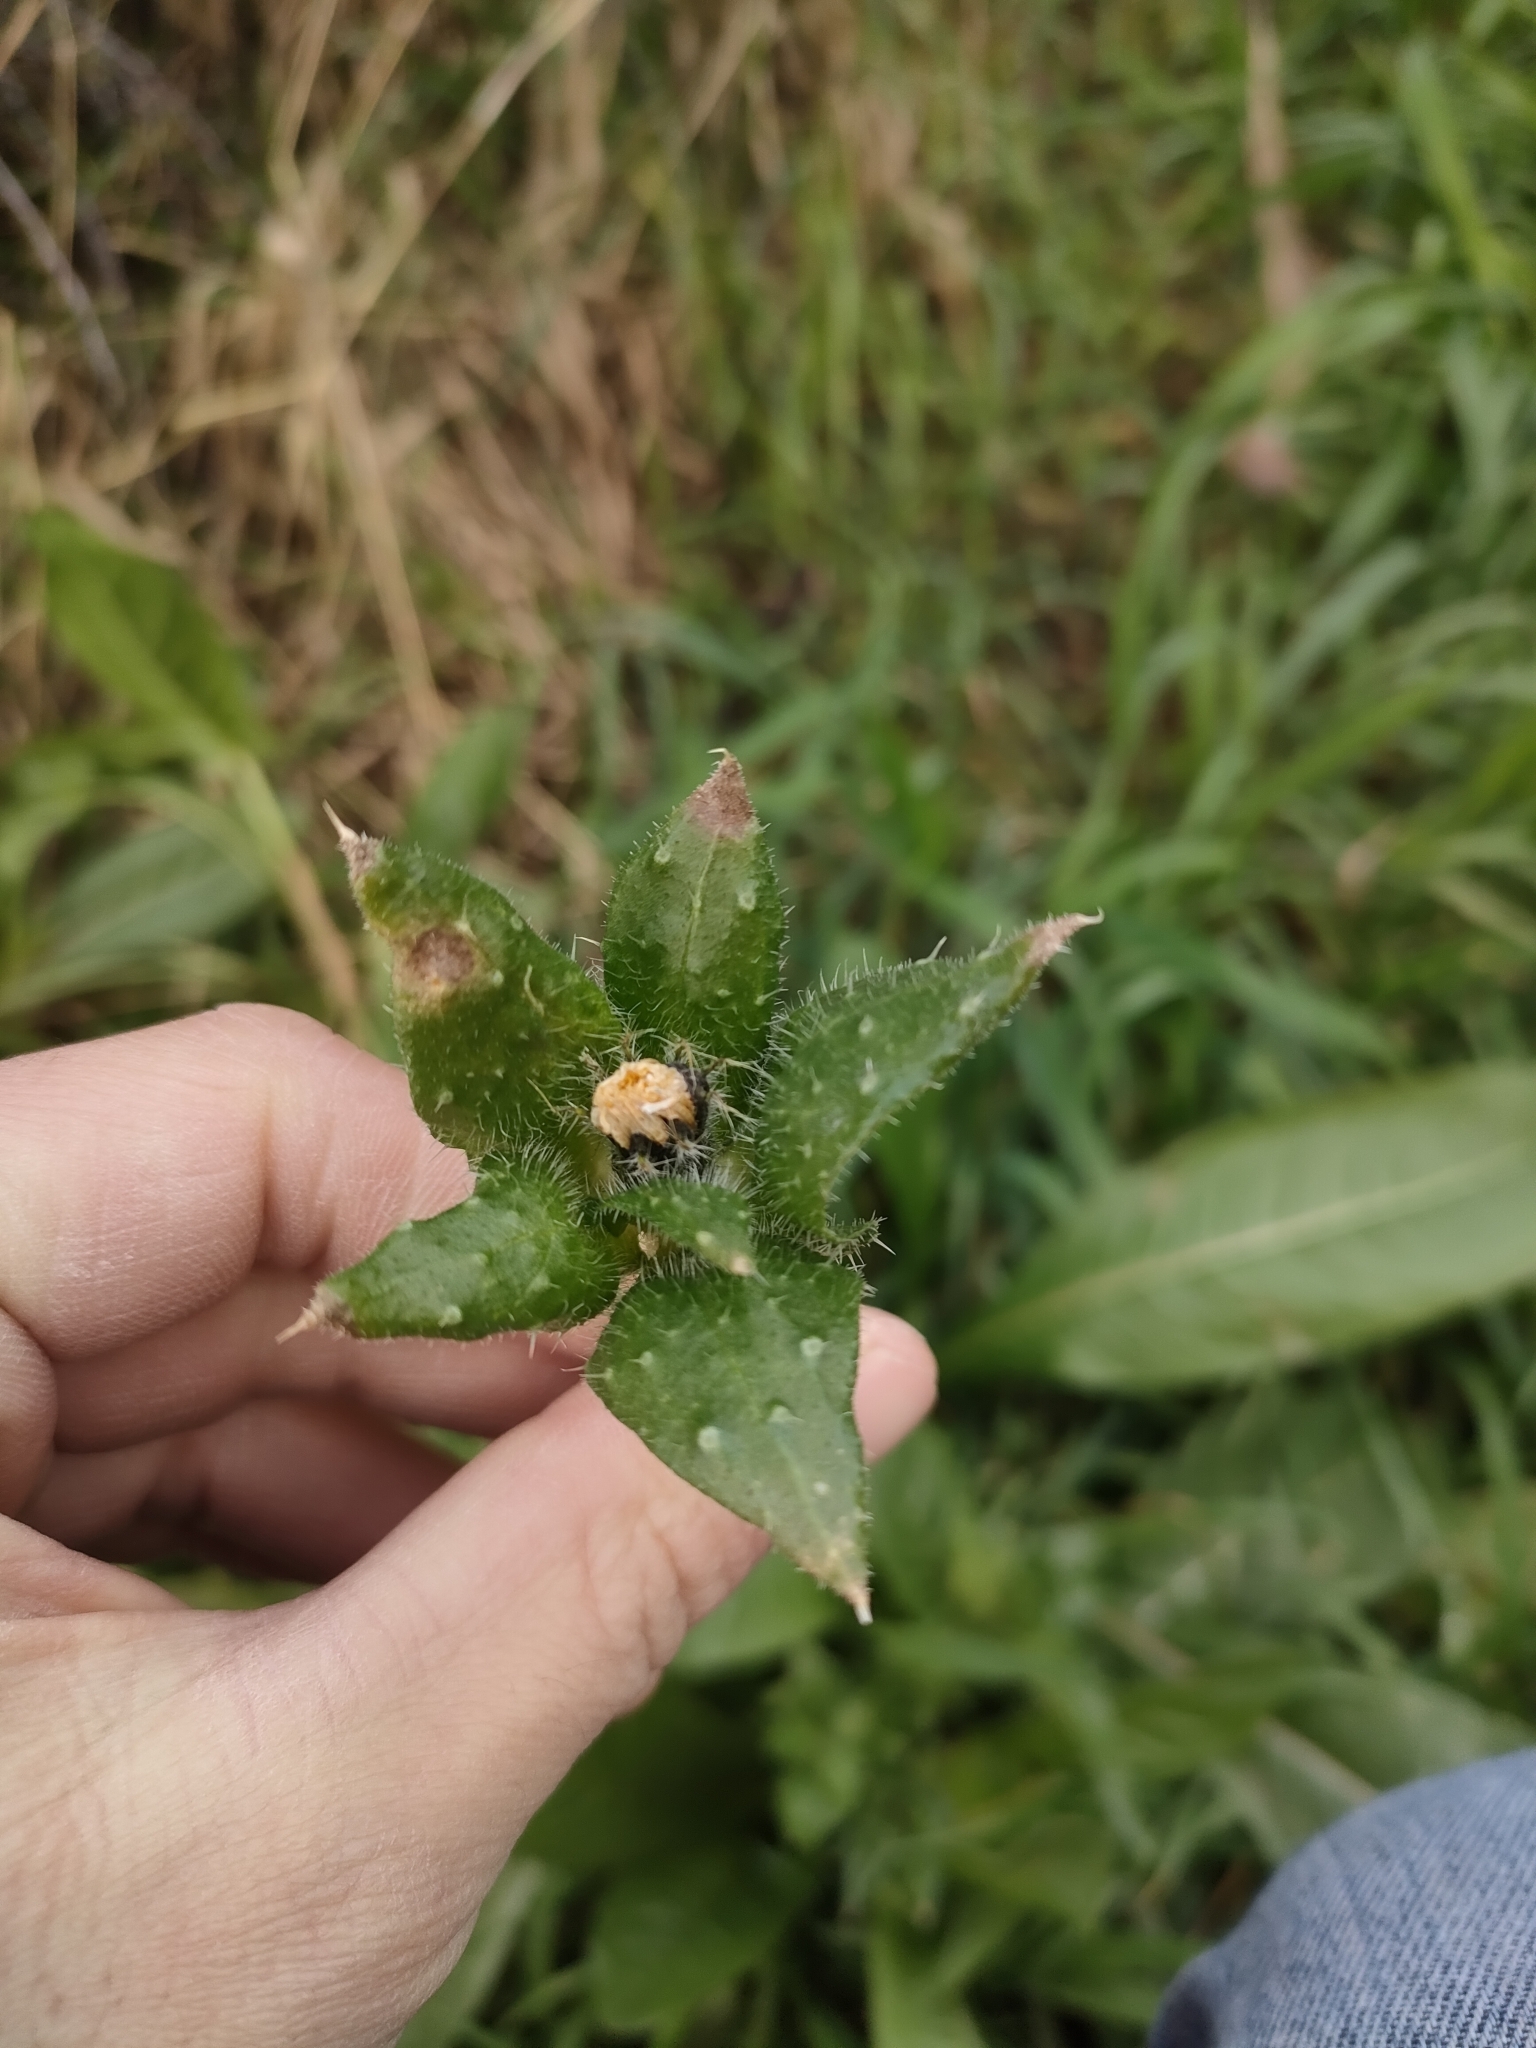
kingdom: Plantae
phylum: Tracheophyta
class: Magnoliopsida
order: Asterales
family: Asteraceae
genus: Helminthotheca
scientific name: Helminthotheca echioides
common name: Ox-tongue
